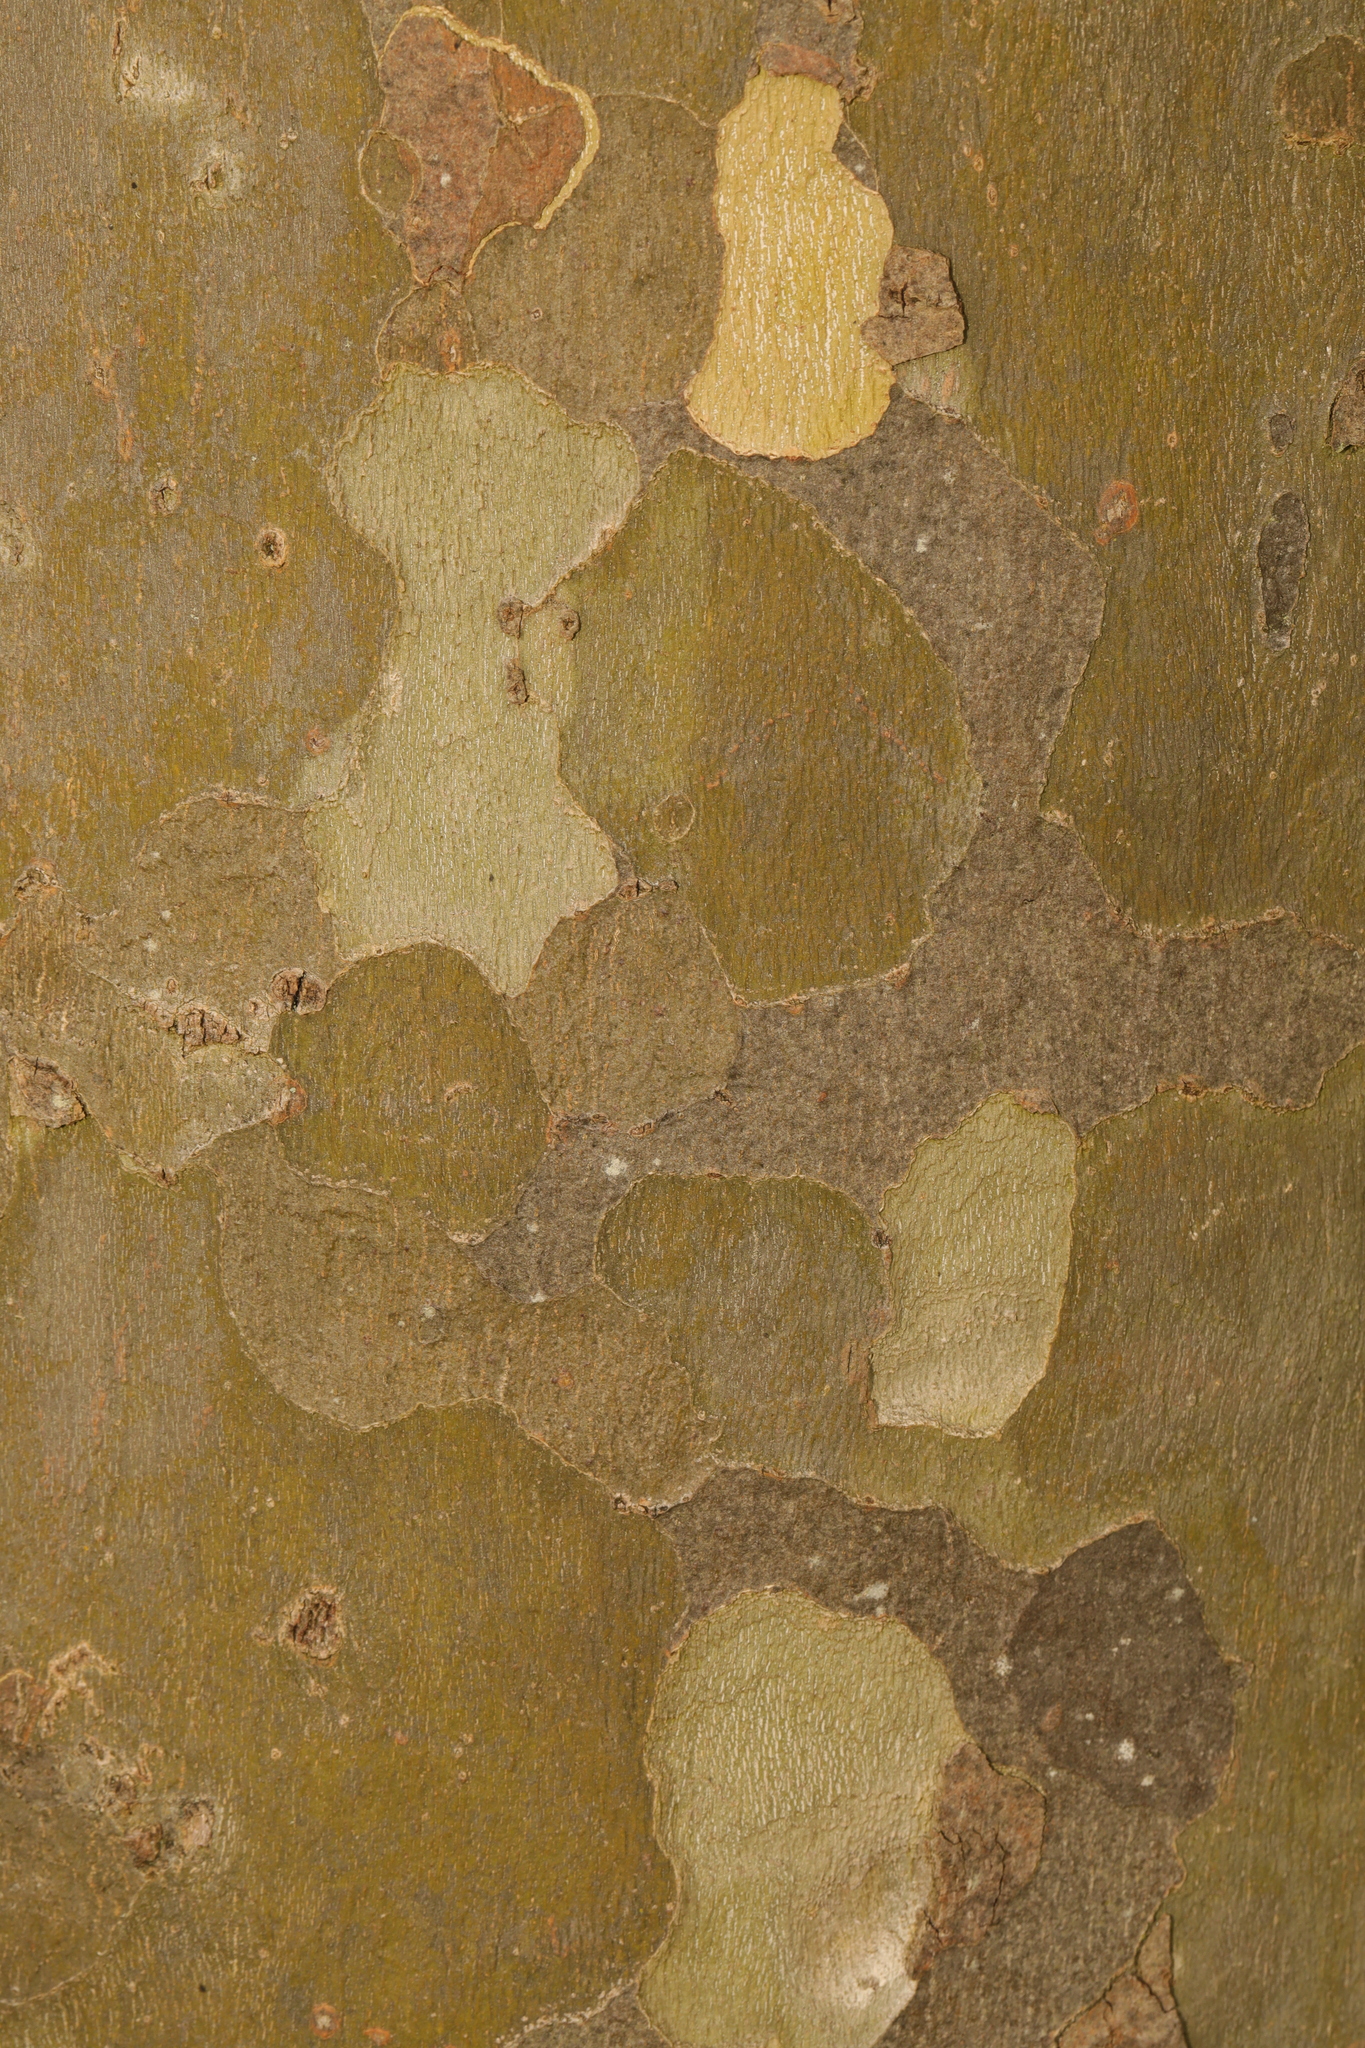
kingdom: Plantae
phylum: Tracheophyta
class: Magnoliopsida
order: Proteales
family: Platanaceae
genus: Platanus
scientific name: Platanus hispanica
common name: London plane
